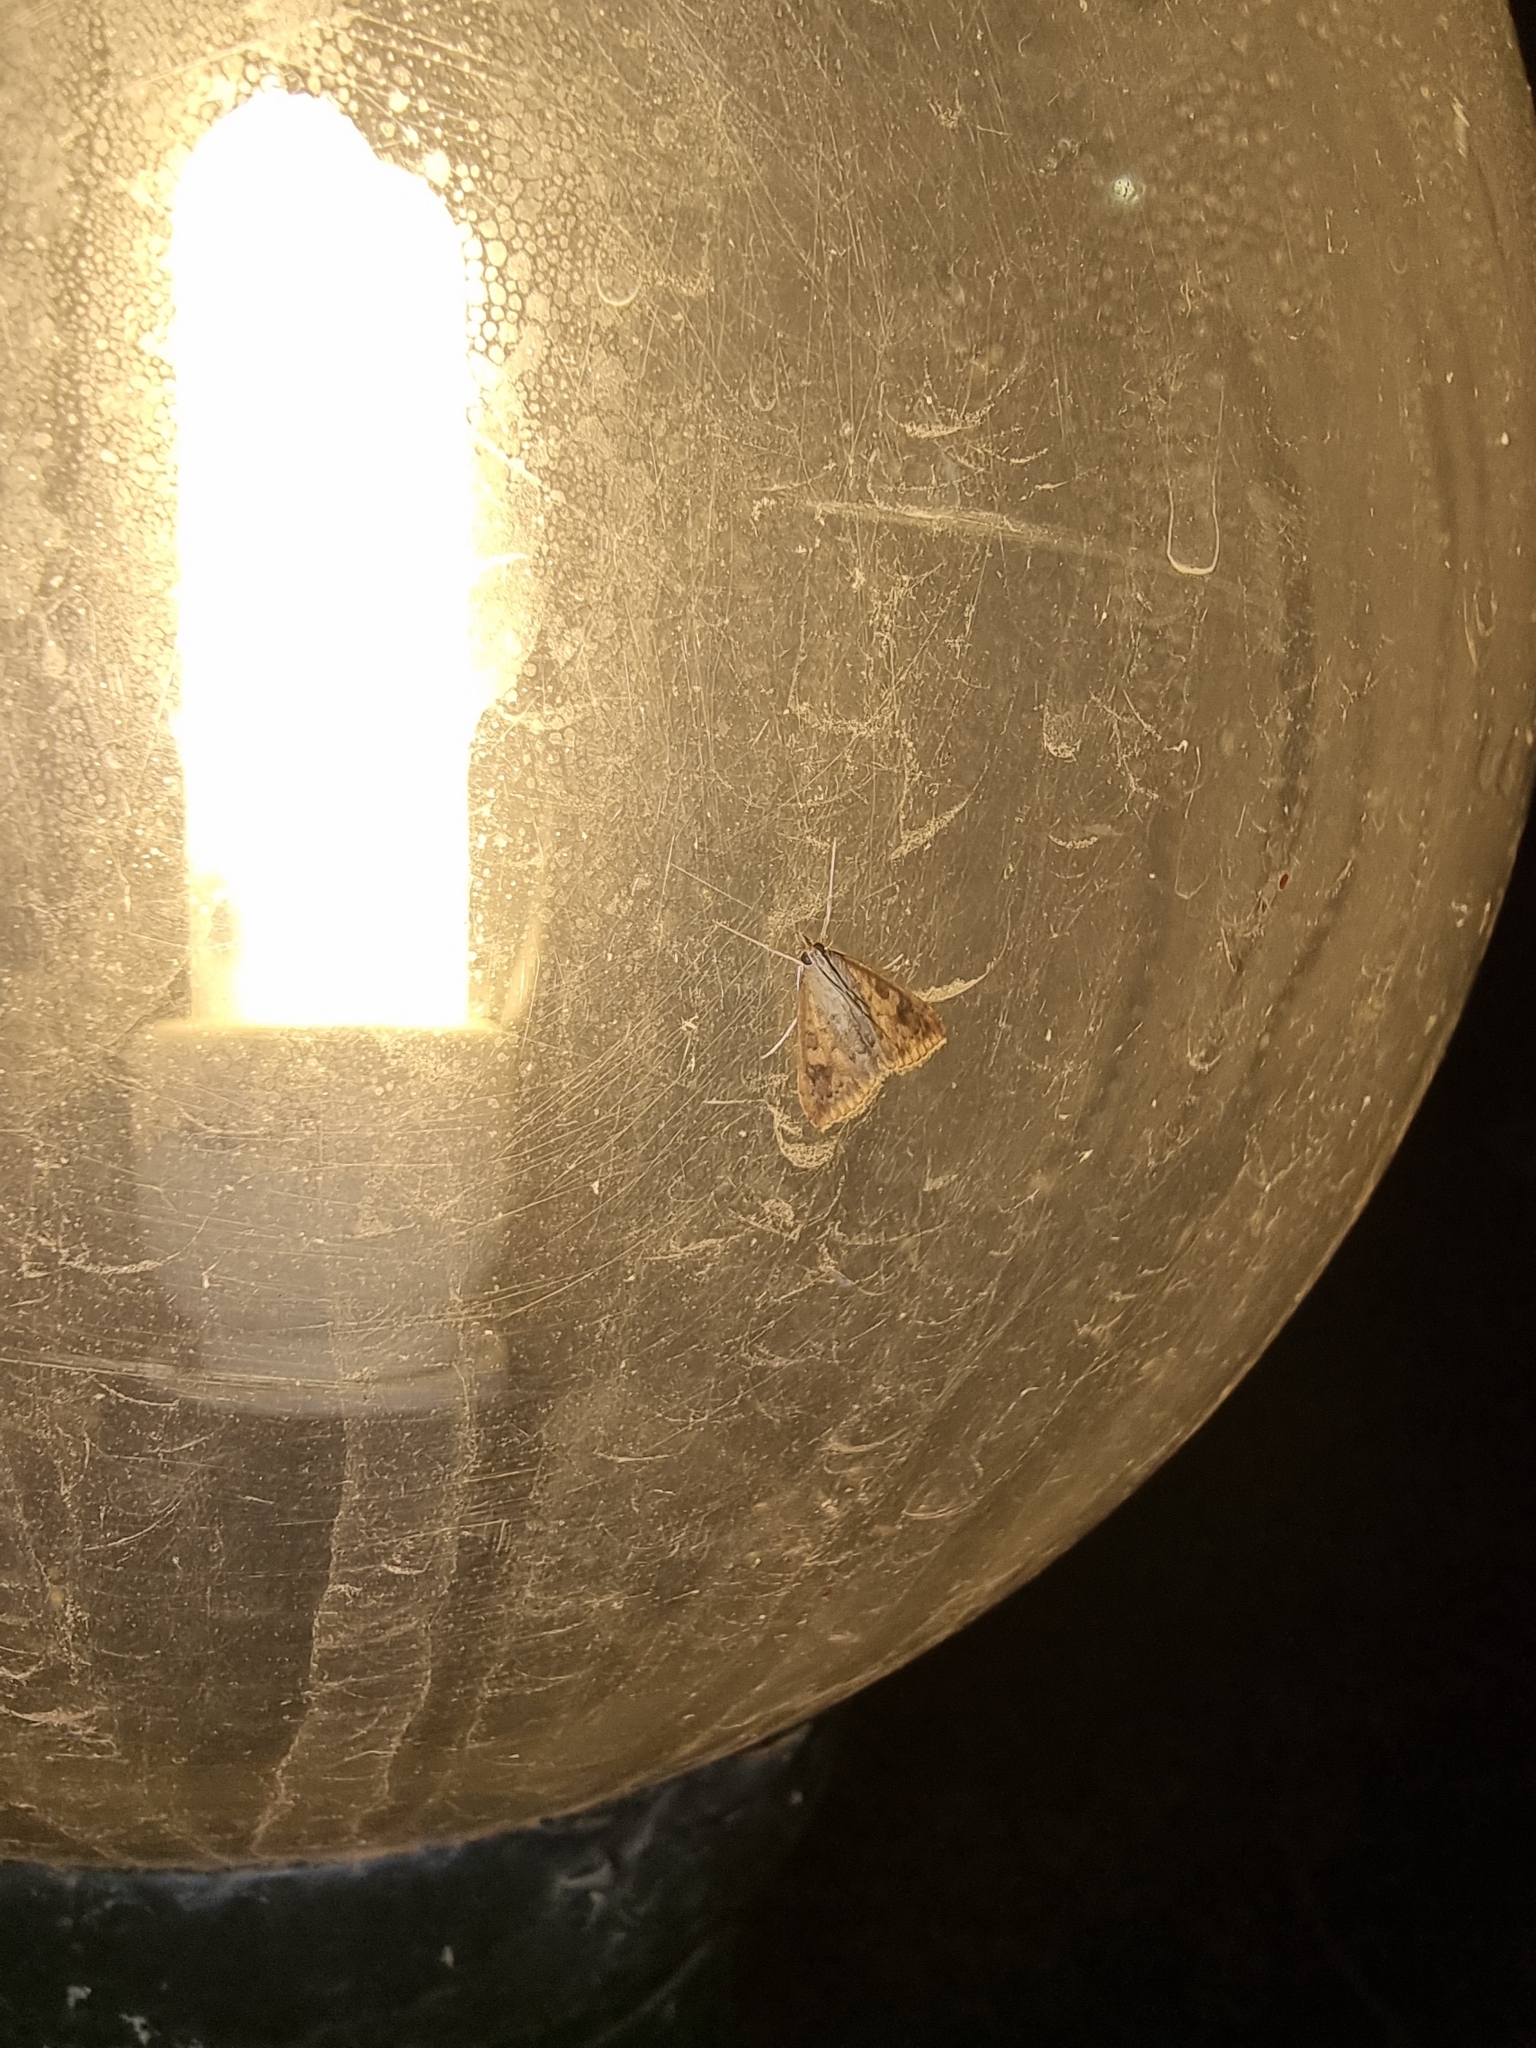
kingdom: Animalia
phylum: Arthropoda
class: Insecta
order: Lepidoptera
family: Crambidae
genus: Udea
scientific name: Udea ferrugalis
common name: Rusty dot
